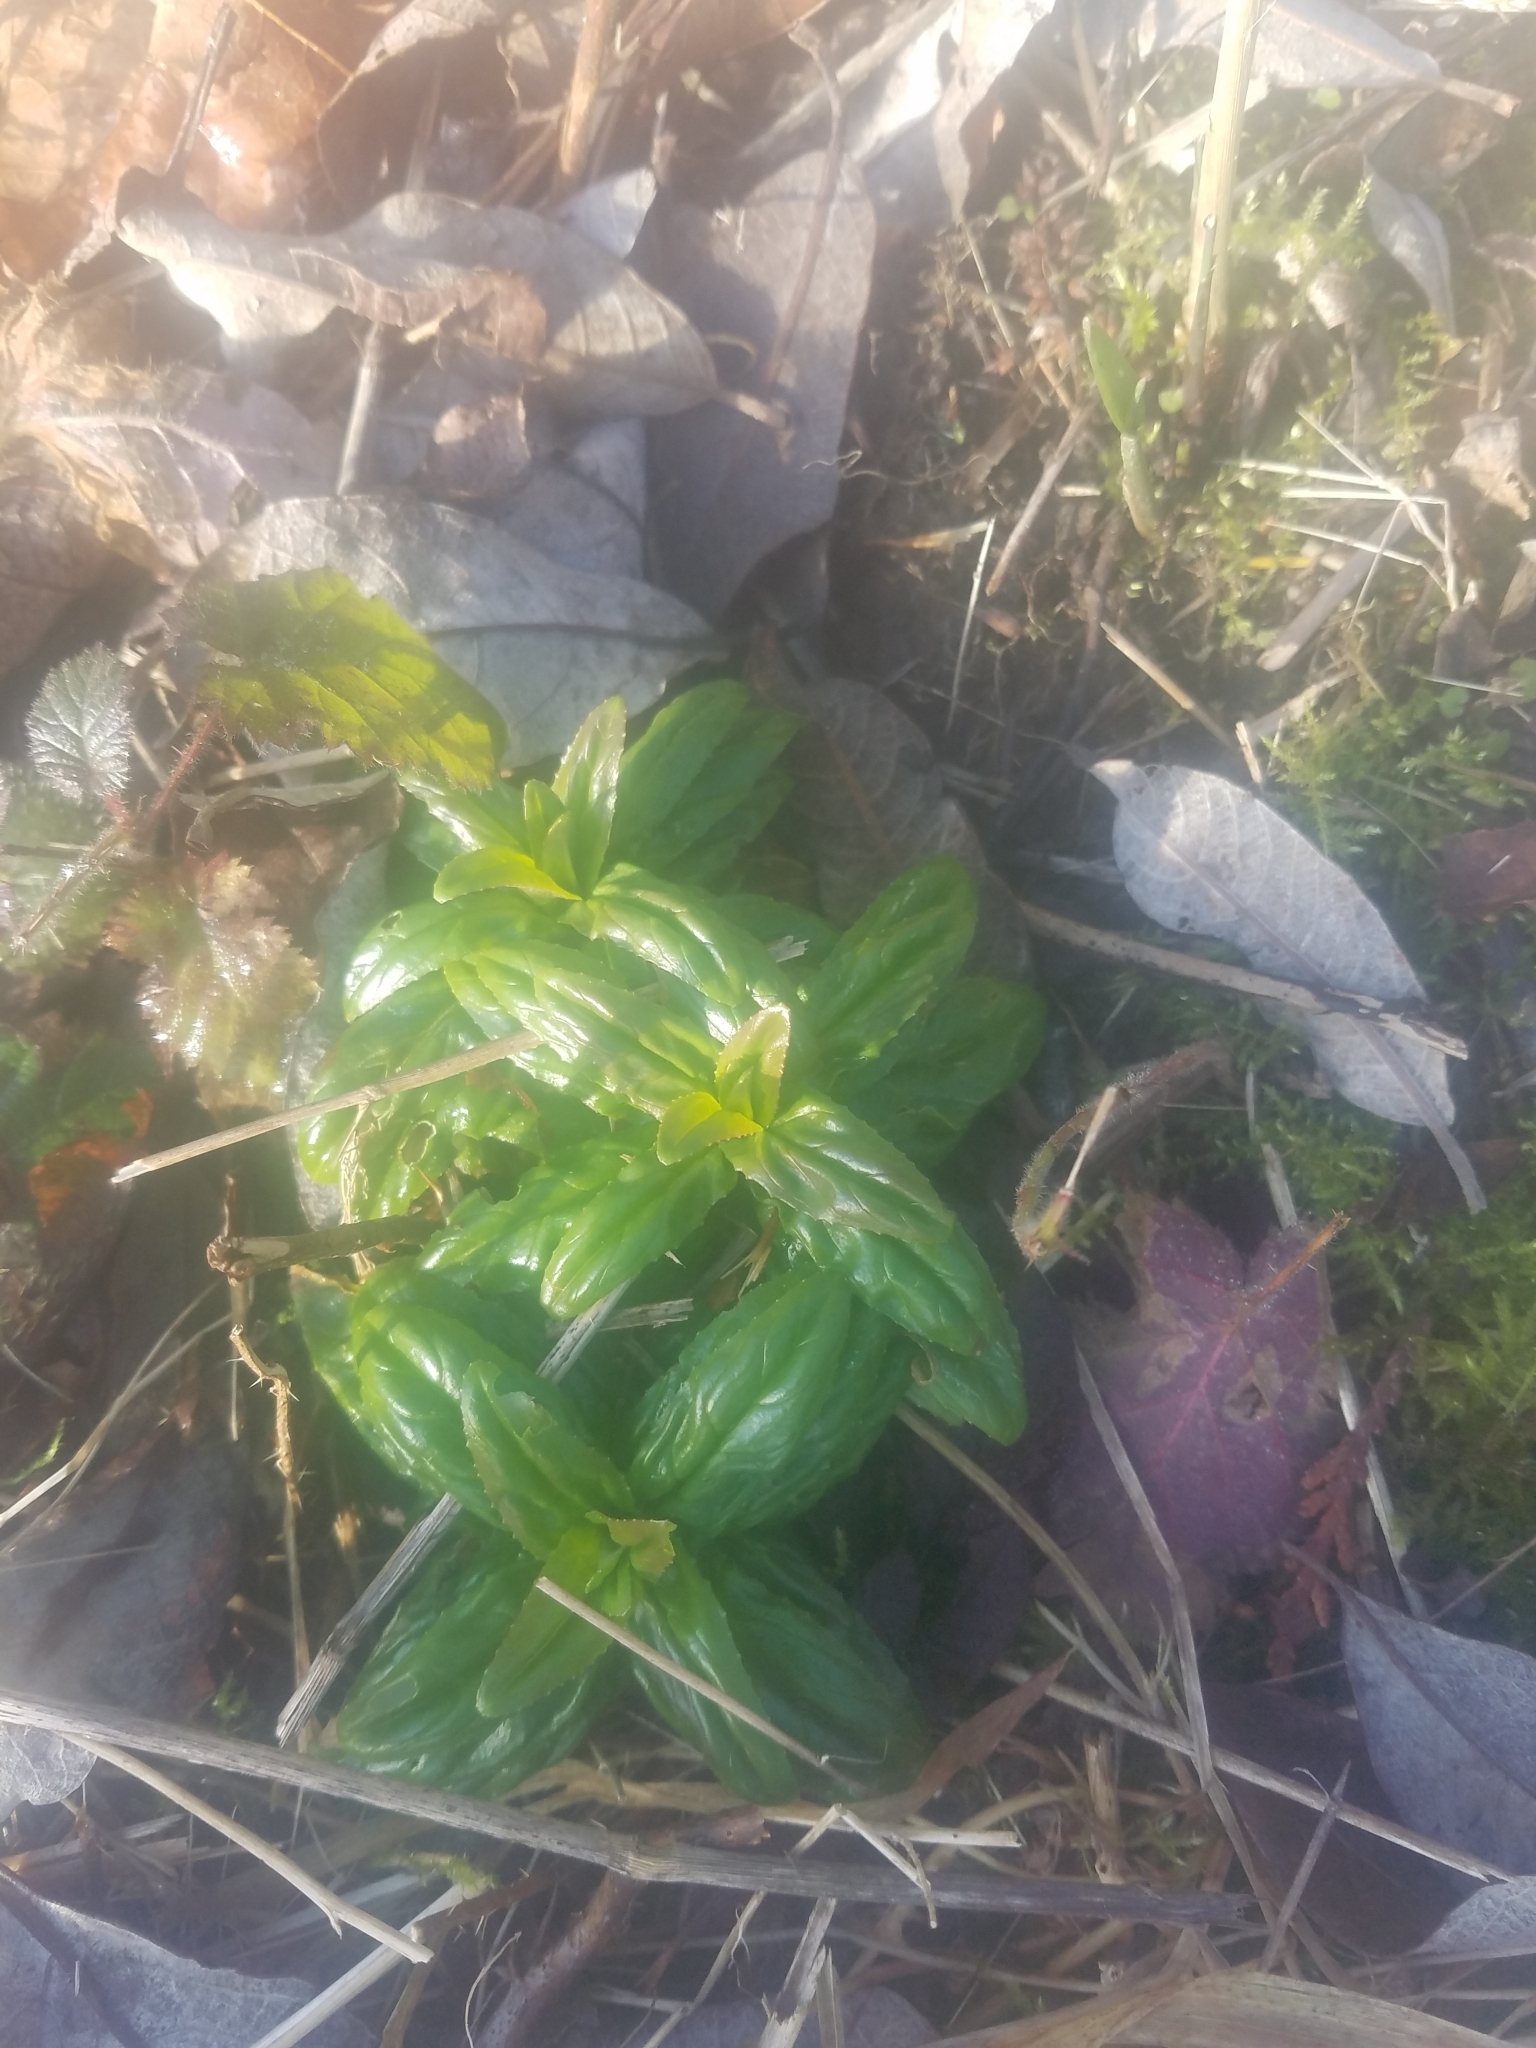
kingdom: Plantae
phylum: Tracheophyta
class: Magnoliopsida
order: Myrtales
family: Onagraceae
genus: Epilobium
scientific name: Epilobium ciliatum
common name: American willowherb
